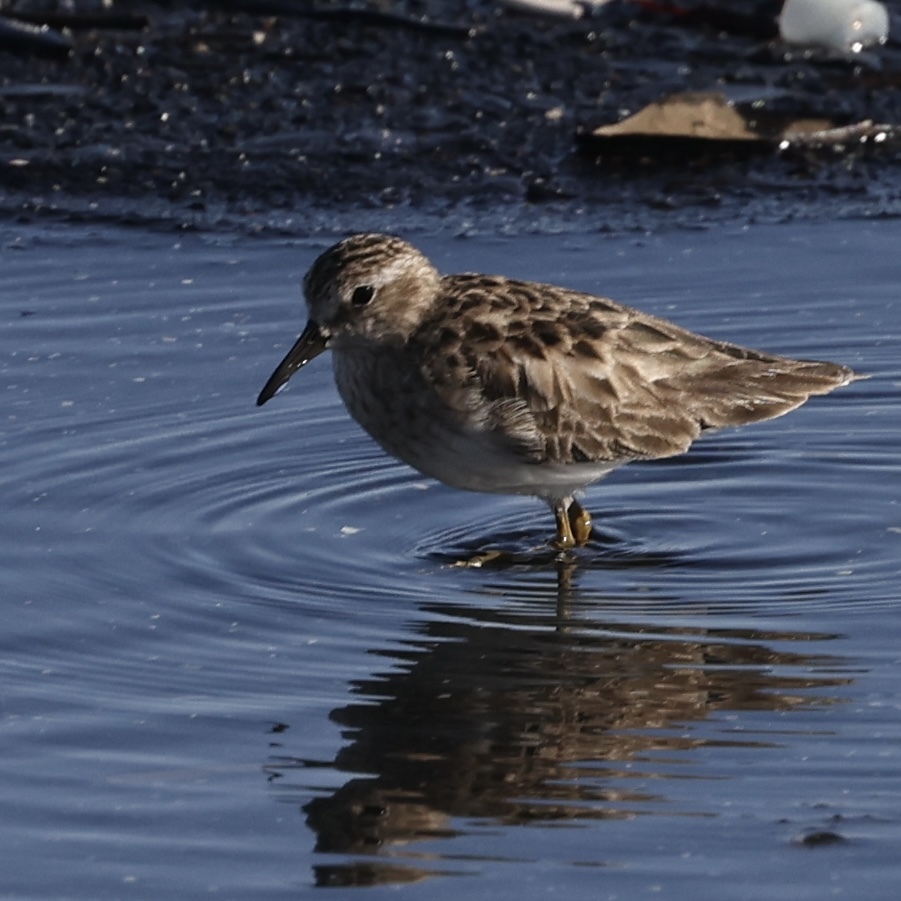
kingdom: Animalia
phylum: Chordata
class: Aves
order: Charadriiformes
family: Scolopacidae
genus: Calidris
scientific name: Calidris minutilla
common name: Least sandpiper
